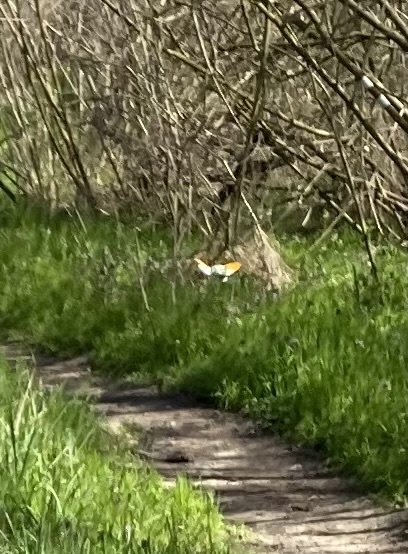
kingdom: Animalia
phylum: Arthropoda
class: Insecta
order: Lepidoptera
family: Pieridae
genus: Anthocharis
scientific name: Anthocharis cardamines
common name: Orange-tip
